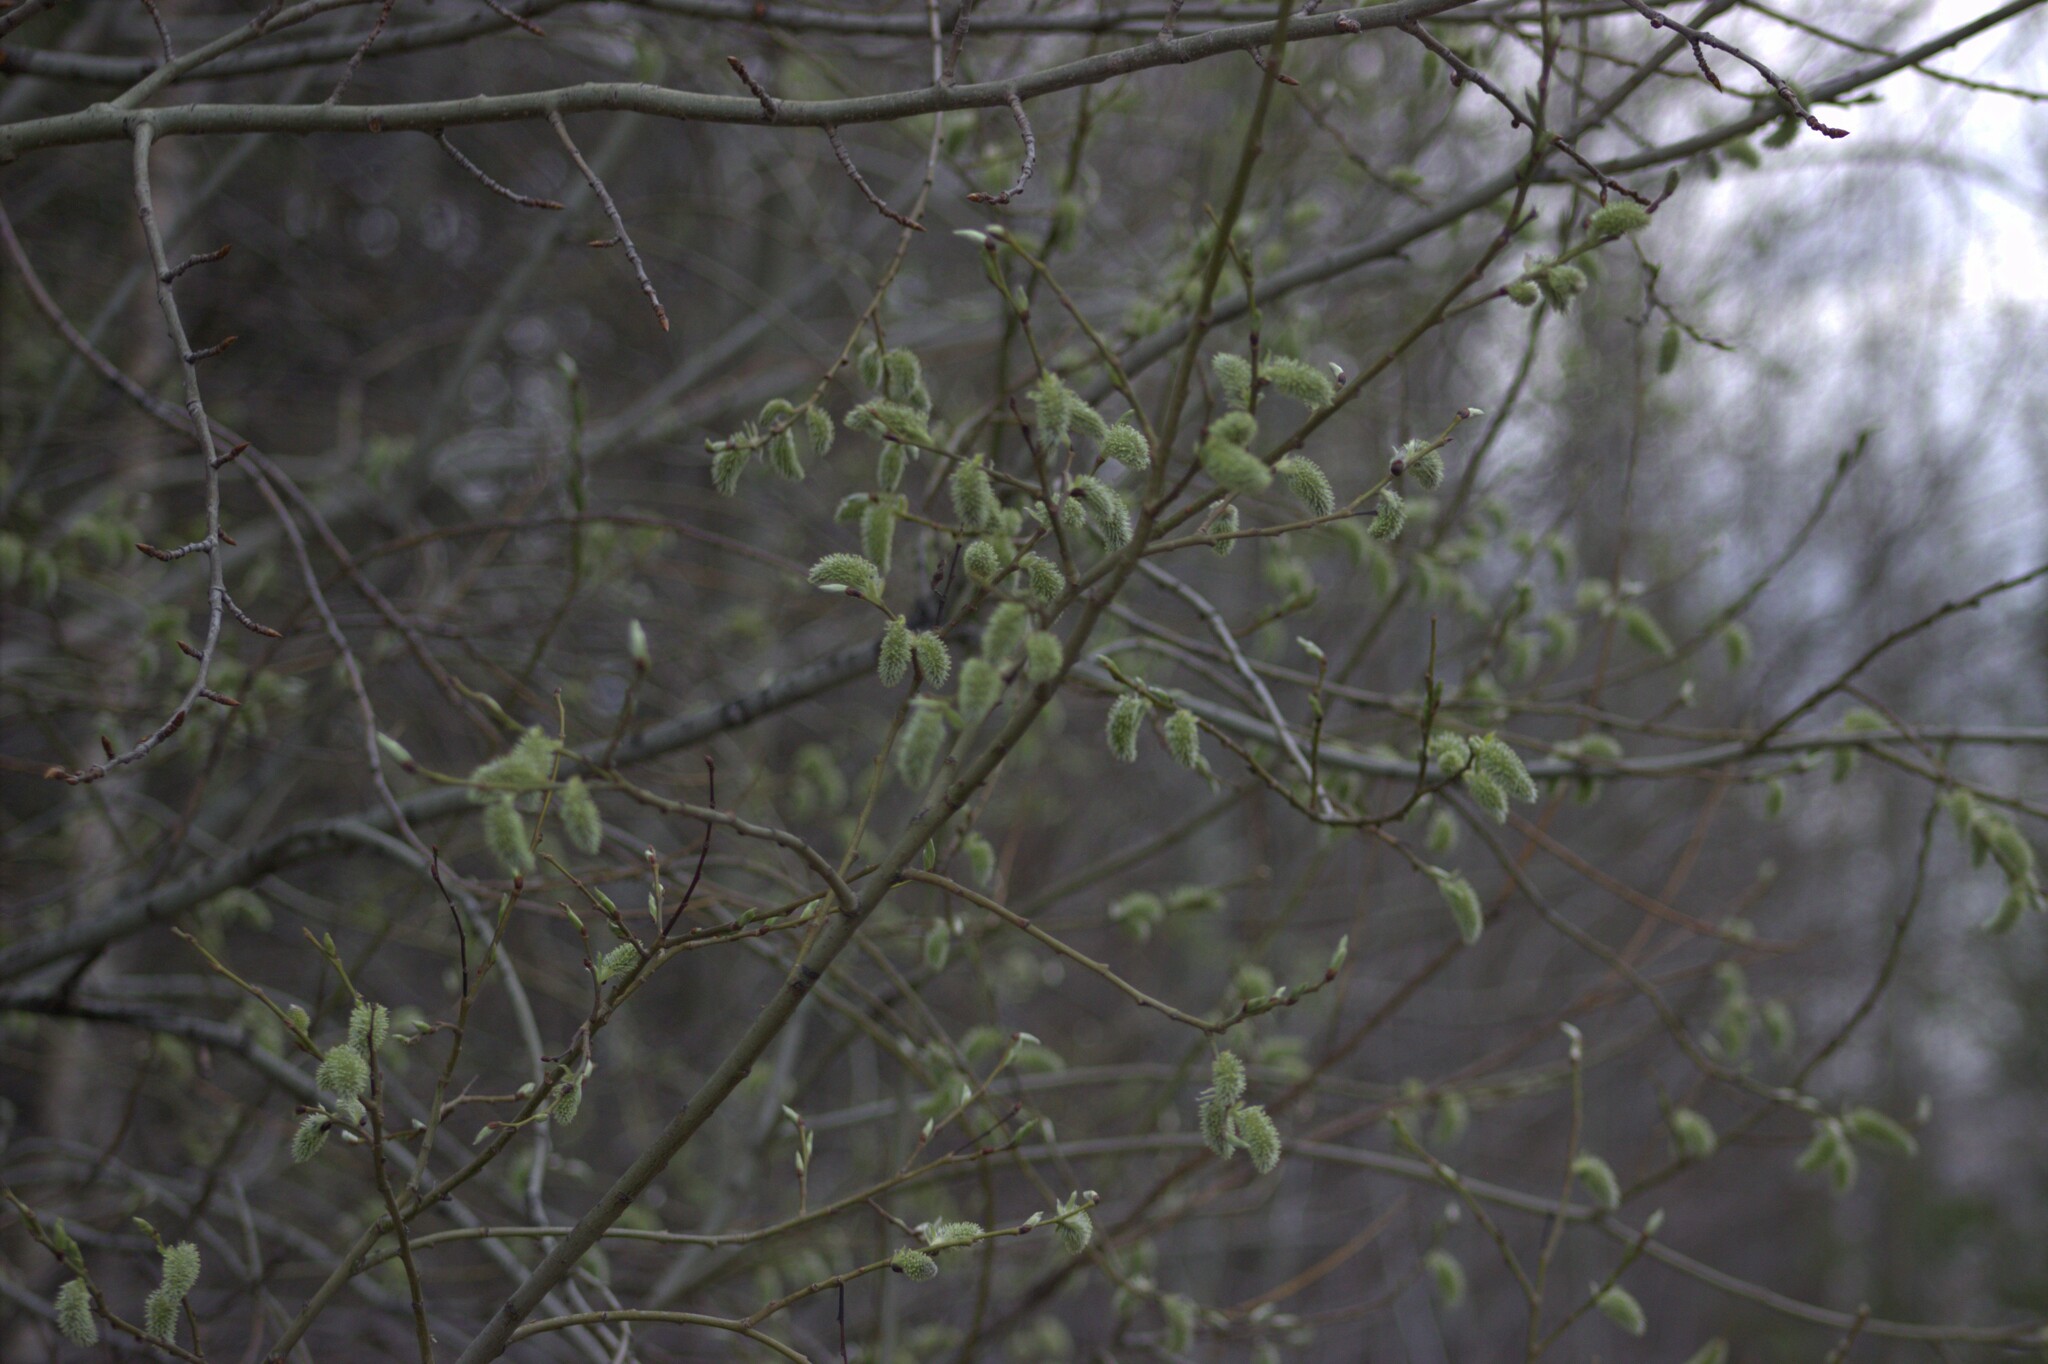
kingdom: Plantae
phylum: Tracheophyta
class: Magnoliopsida
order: Malpighiales
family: Salicaceae
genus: Salix
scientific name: Salix caprea
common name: Goat willow
